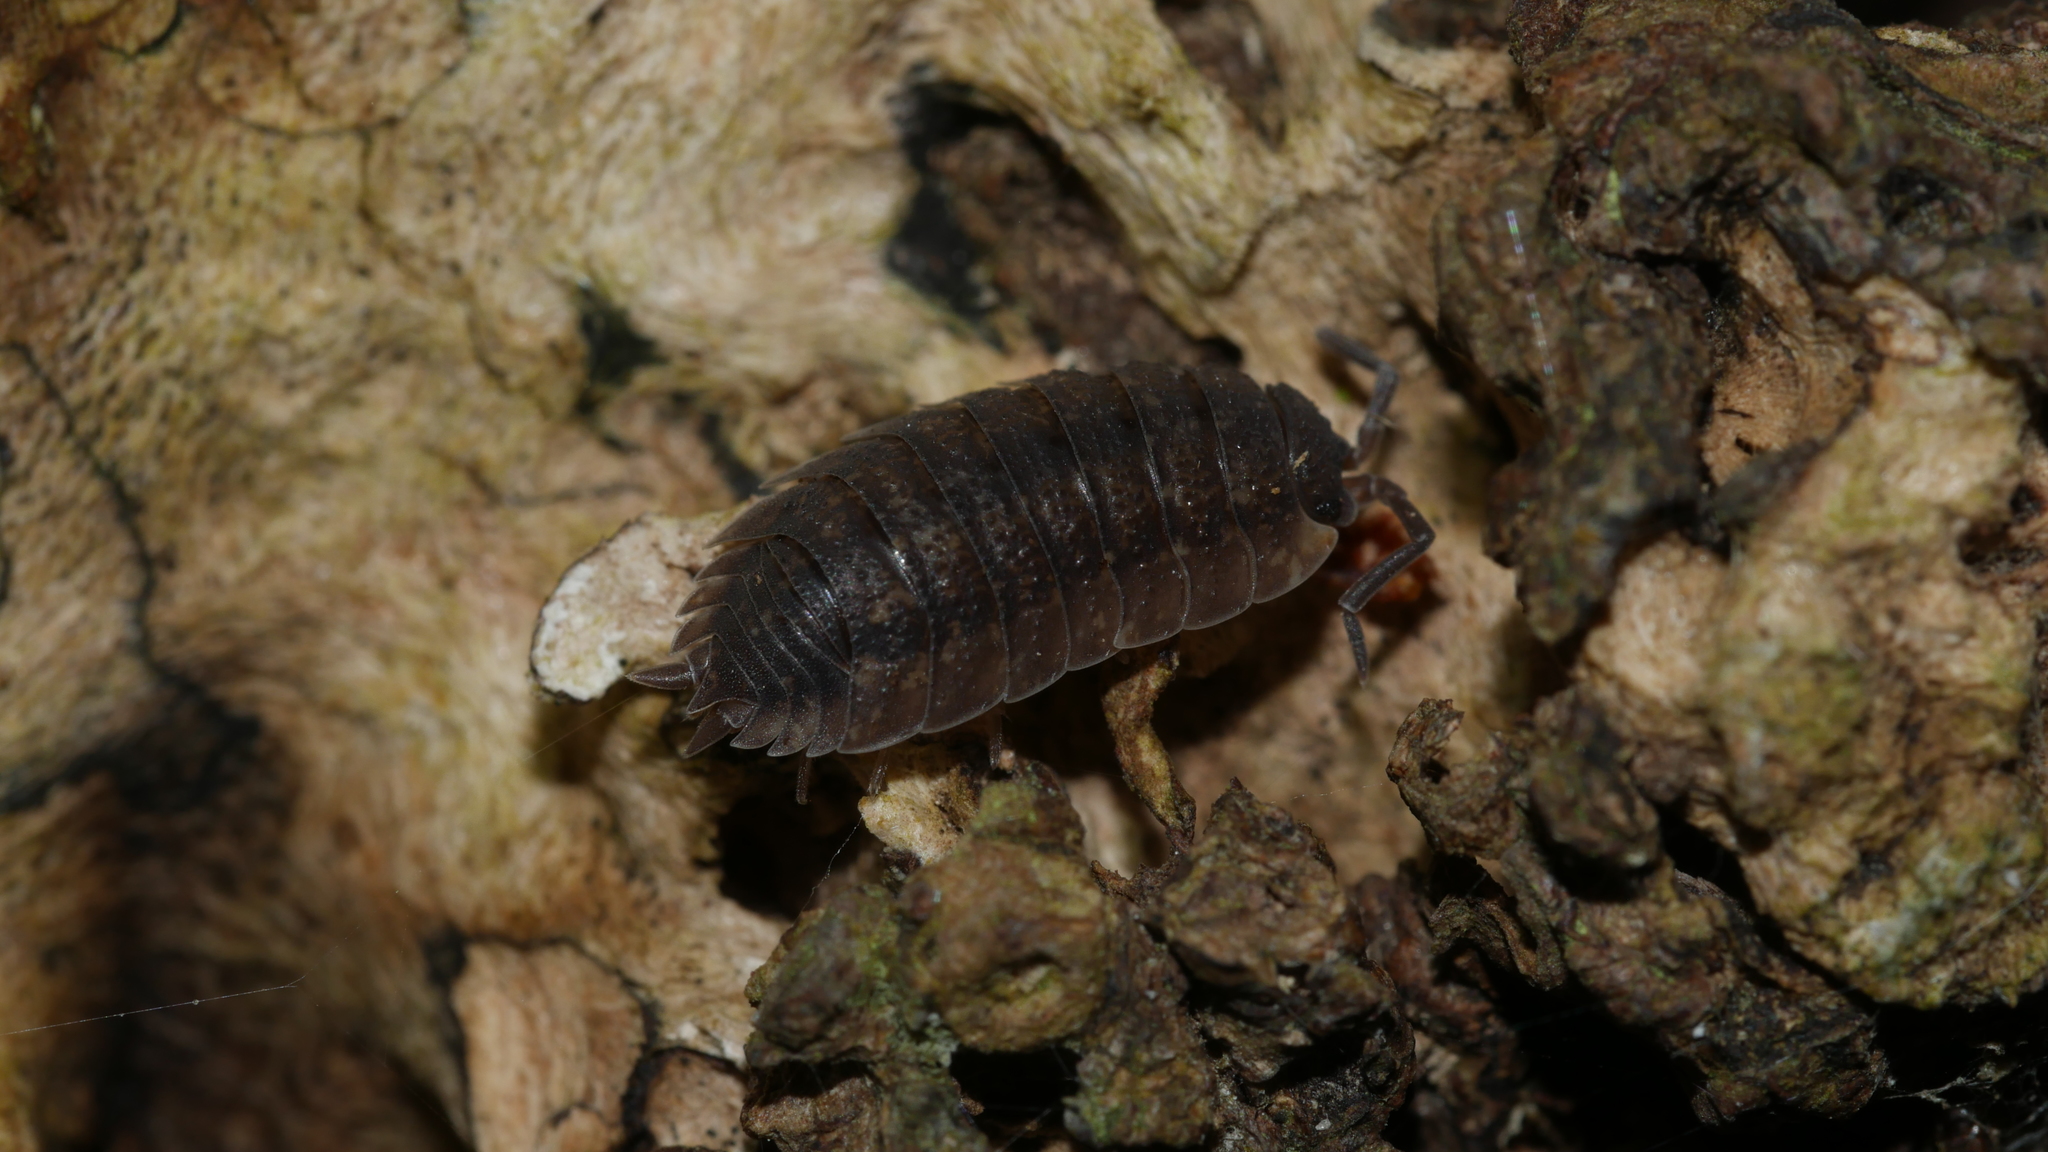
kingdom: Animalia
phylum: Arthropoda
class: Malacostraca
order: Isopoda
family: Porcellionidae
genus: Porcellio
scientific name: Porcellio scaber
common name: Common rough woodlouse
